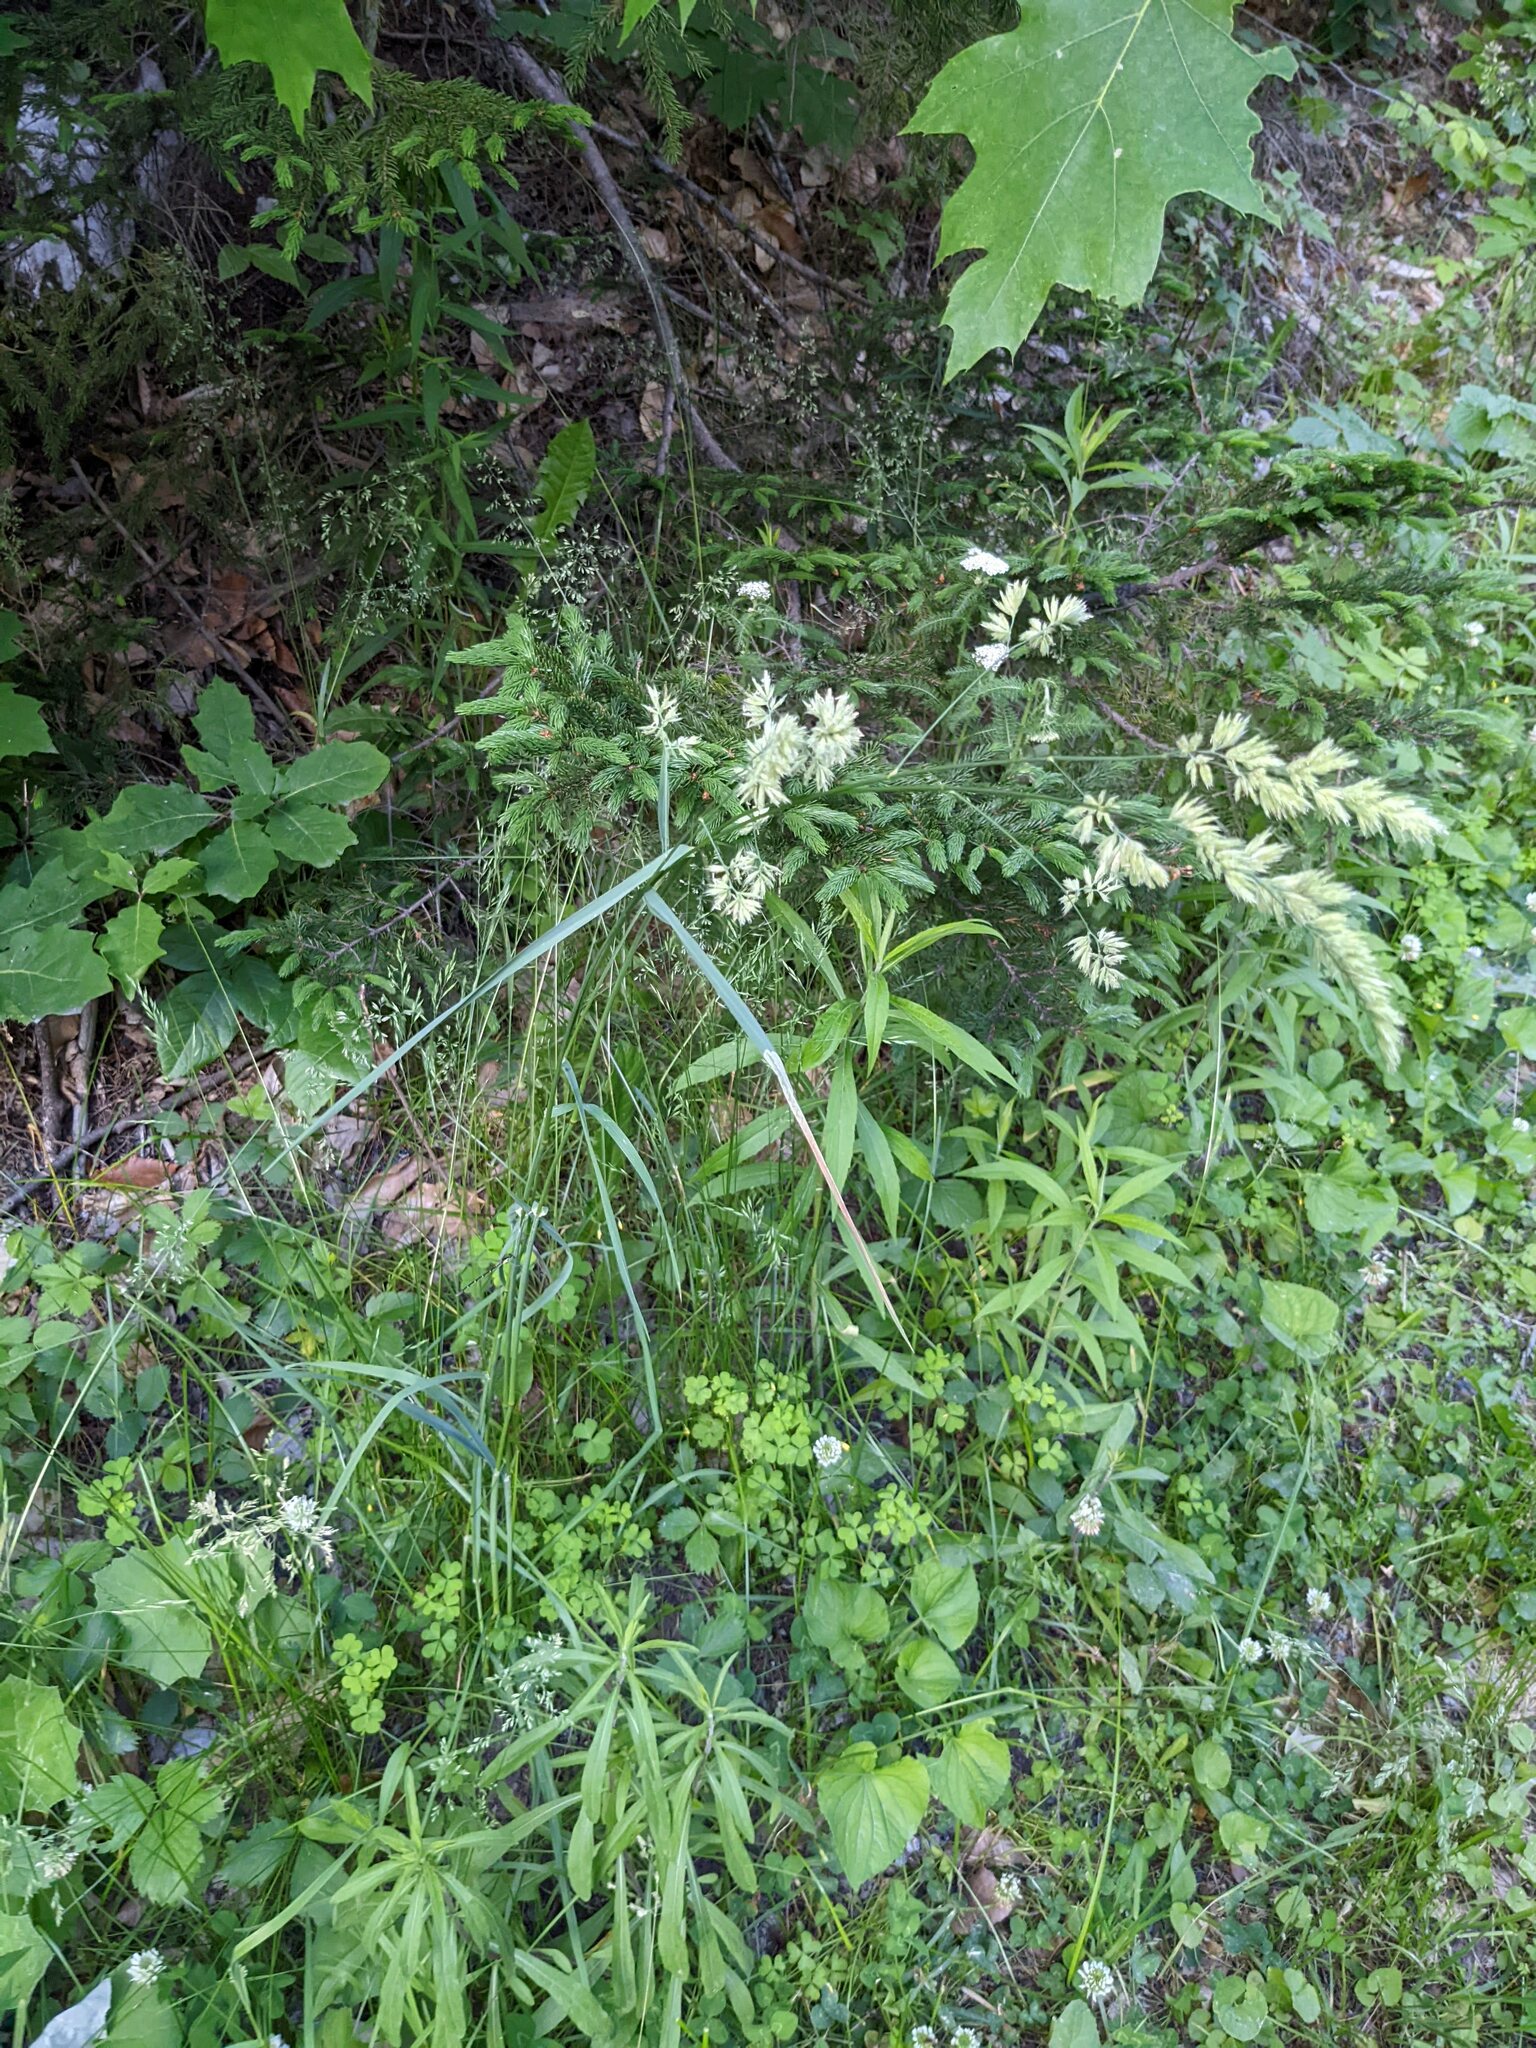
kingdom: Plantae
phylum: Tracheophyta
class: Liliopsida
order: Poales
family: Poaceae
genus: Dactylis
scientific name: Dactylis glomerata
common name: Orchardgrass
